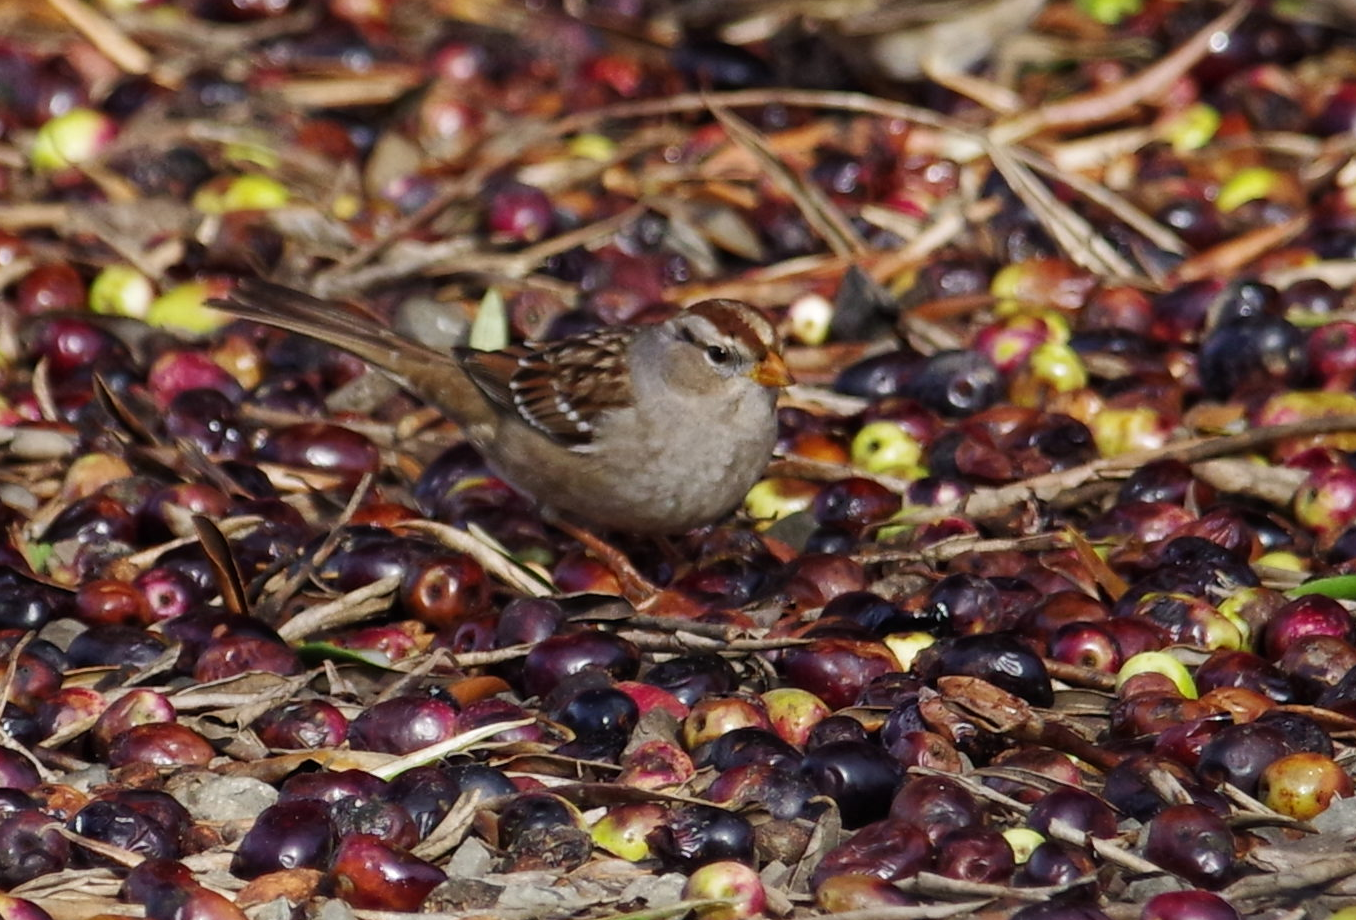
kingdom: Animalia
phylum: Chordata
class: Aves
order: Passeriformes
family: Passerellidae
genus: Zonotrichia
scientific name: Zonotrichia leucophrys
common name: White-crowned sparrow
